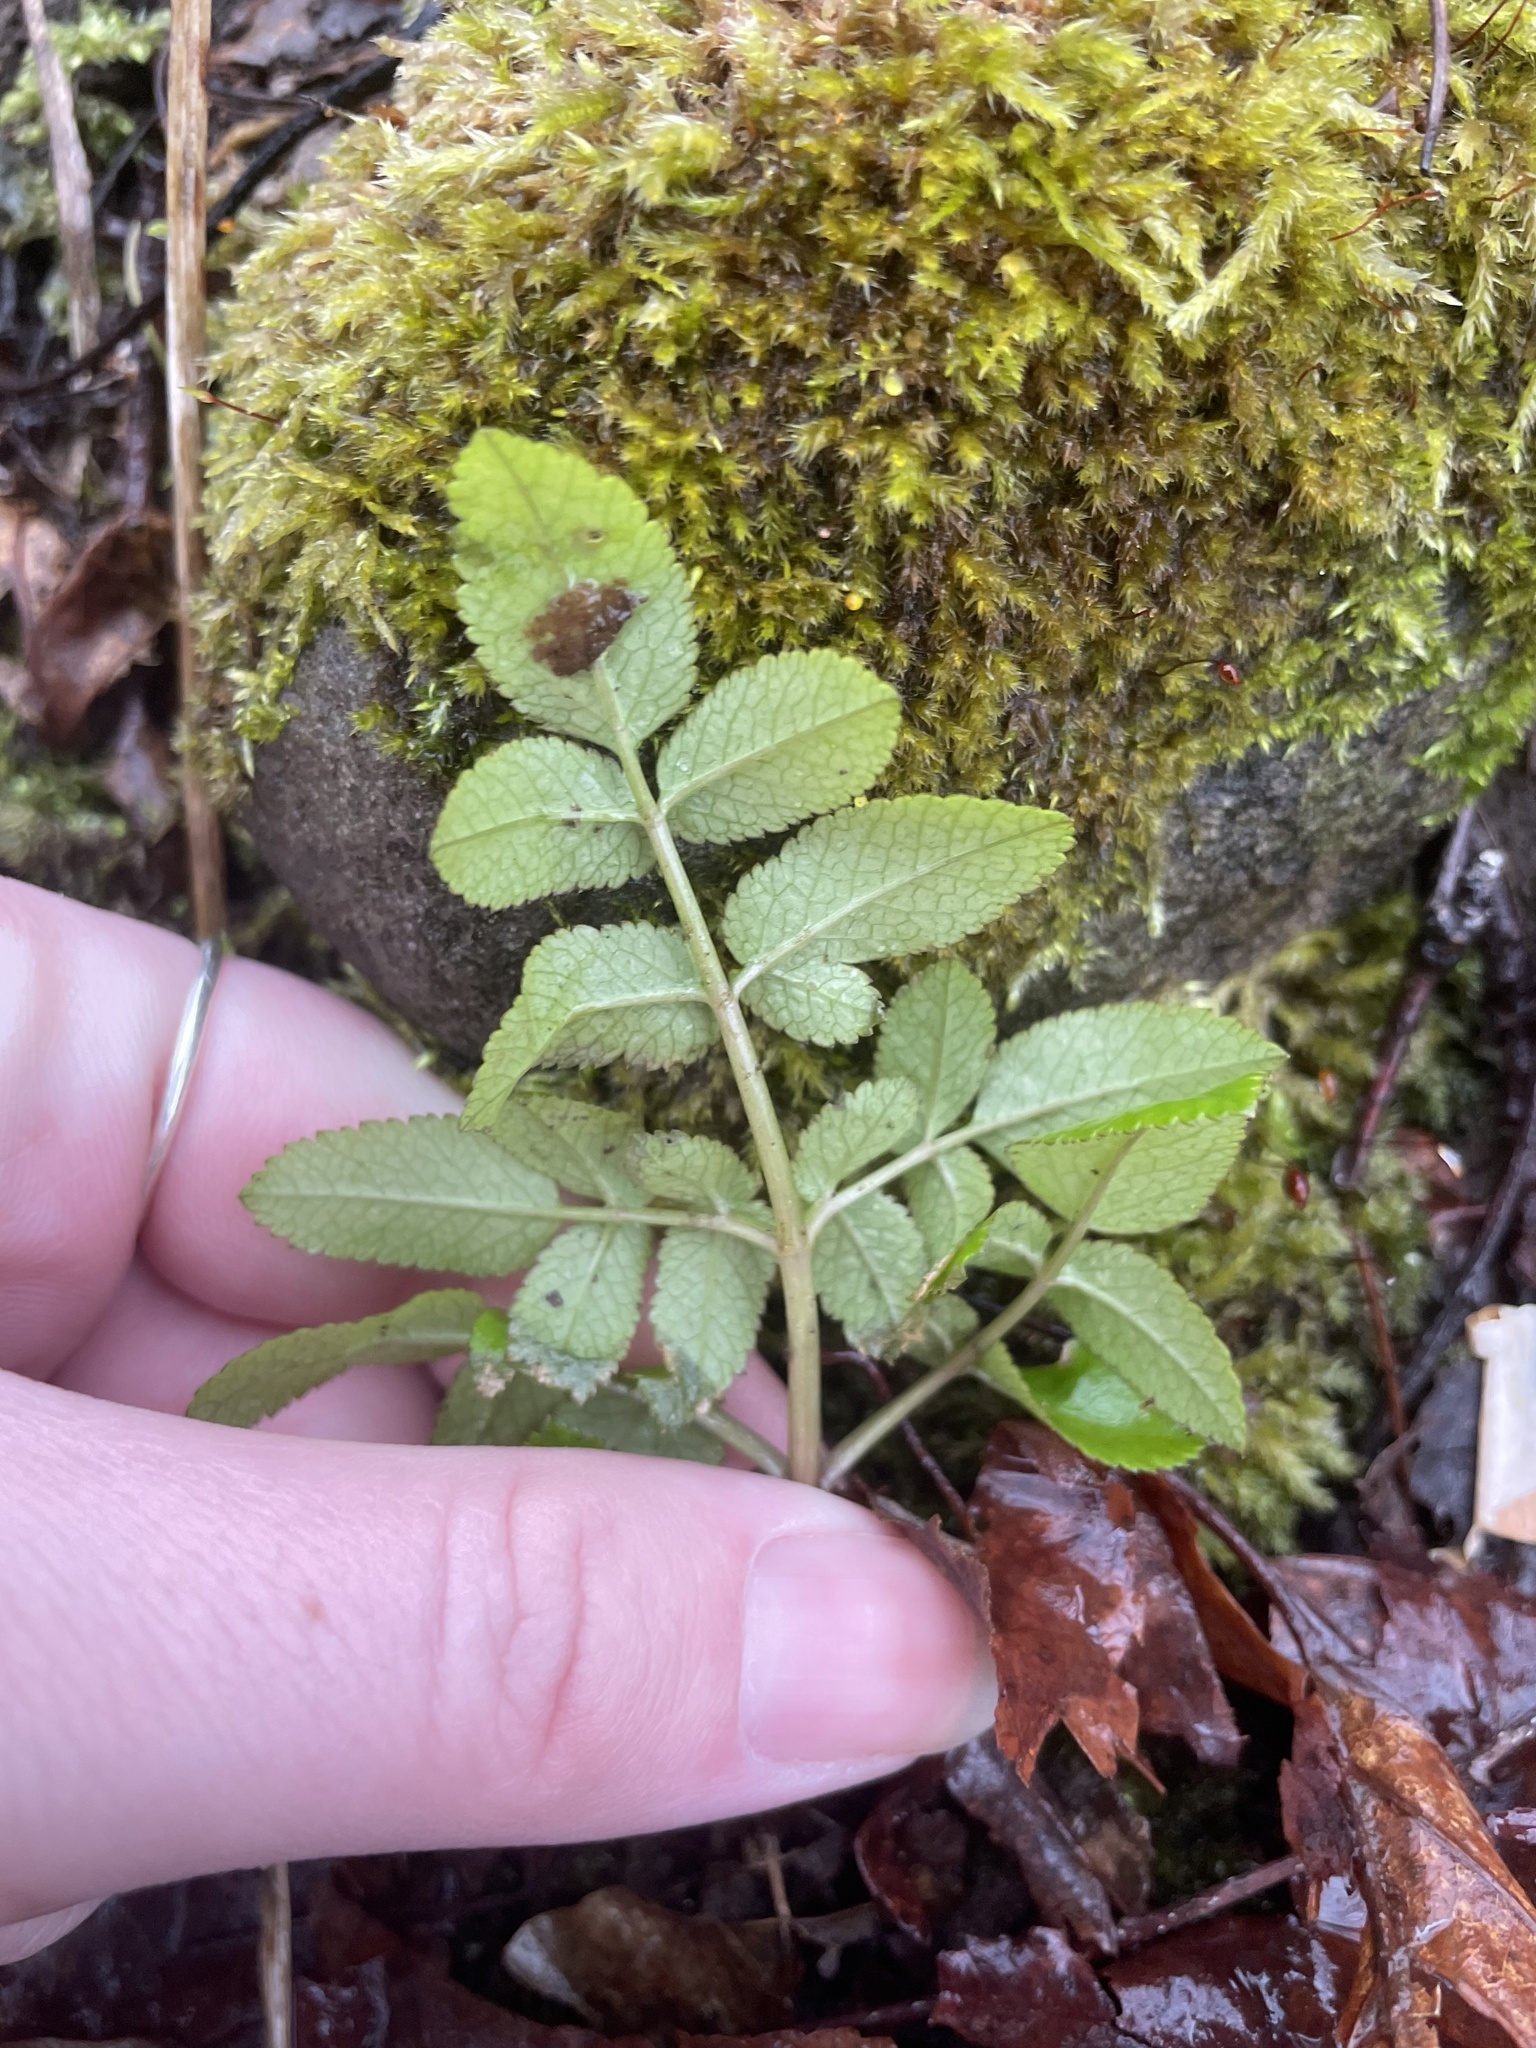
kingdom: Plantae
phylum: Tracheophyta
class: Magnoliopsida
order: Apiales
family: Apiaceae
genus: Angelica
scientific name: Angelica sylvestris
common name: Wild angelica
